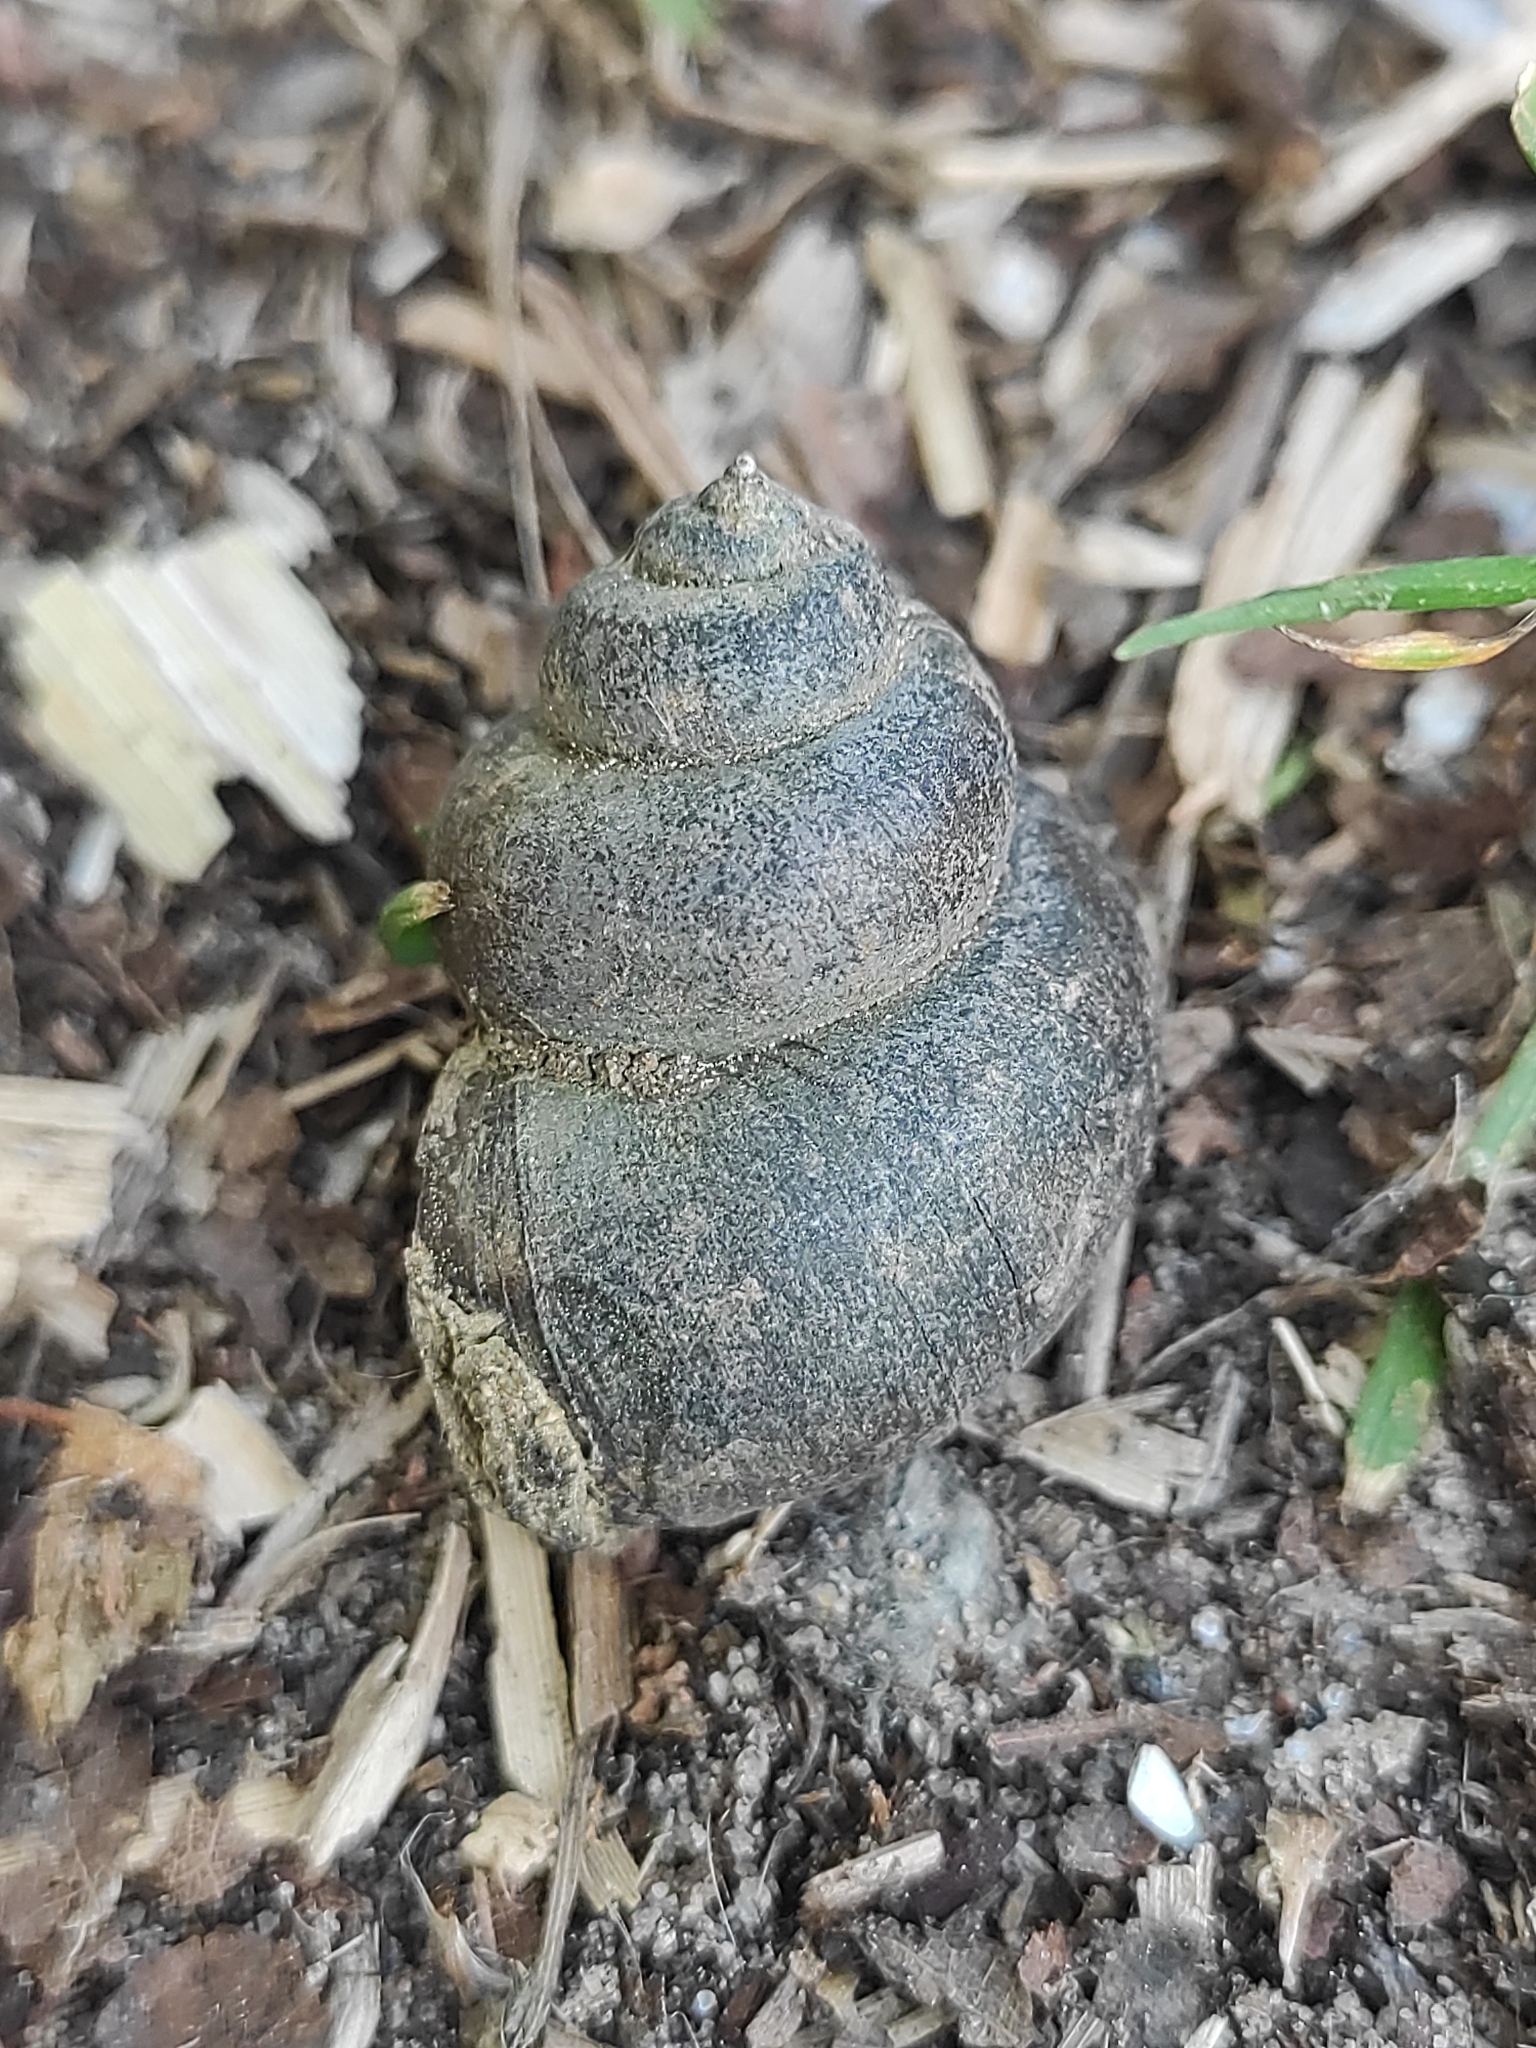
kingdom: Animalia
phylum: Mollusca
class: Gastropoda
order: Architaenioglossa
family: Viviparidae
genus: Viviparus
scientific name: Viviparus contectus
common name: Lister's river snail
